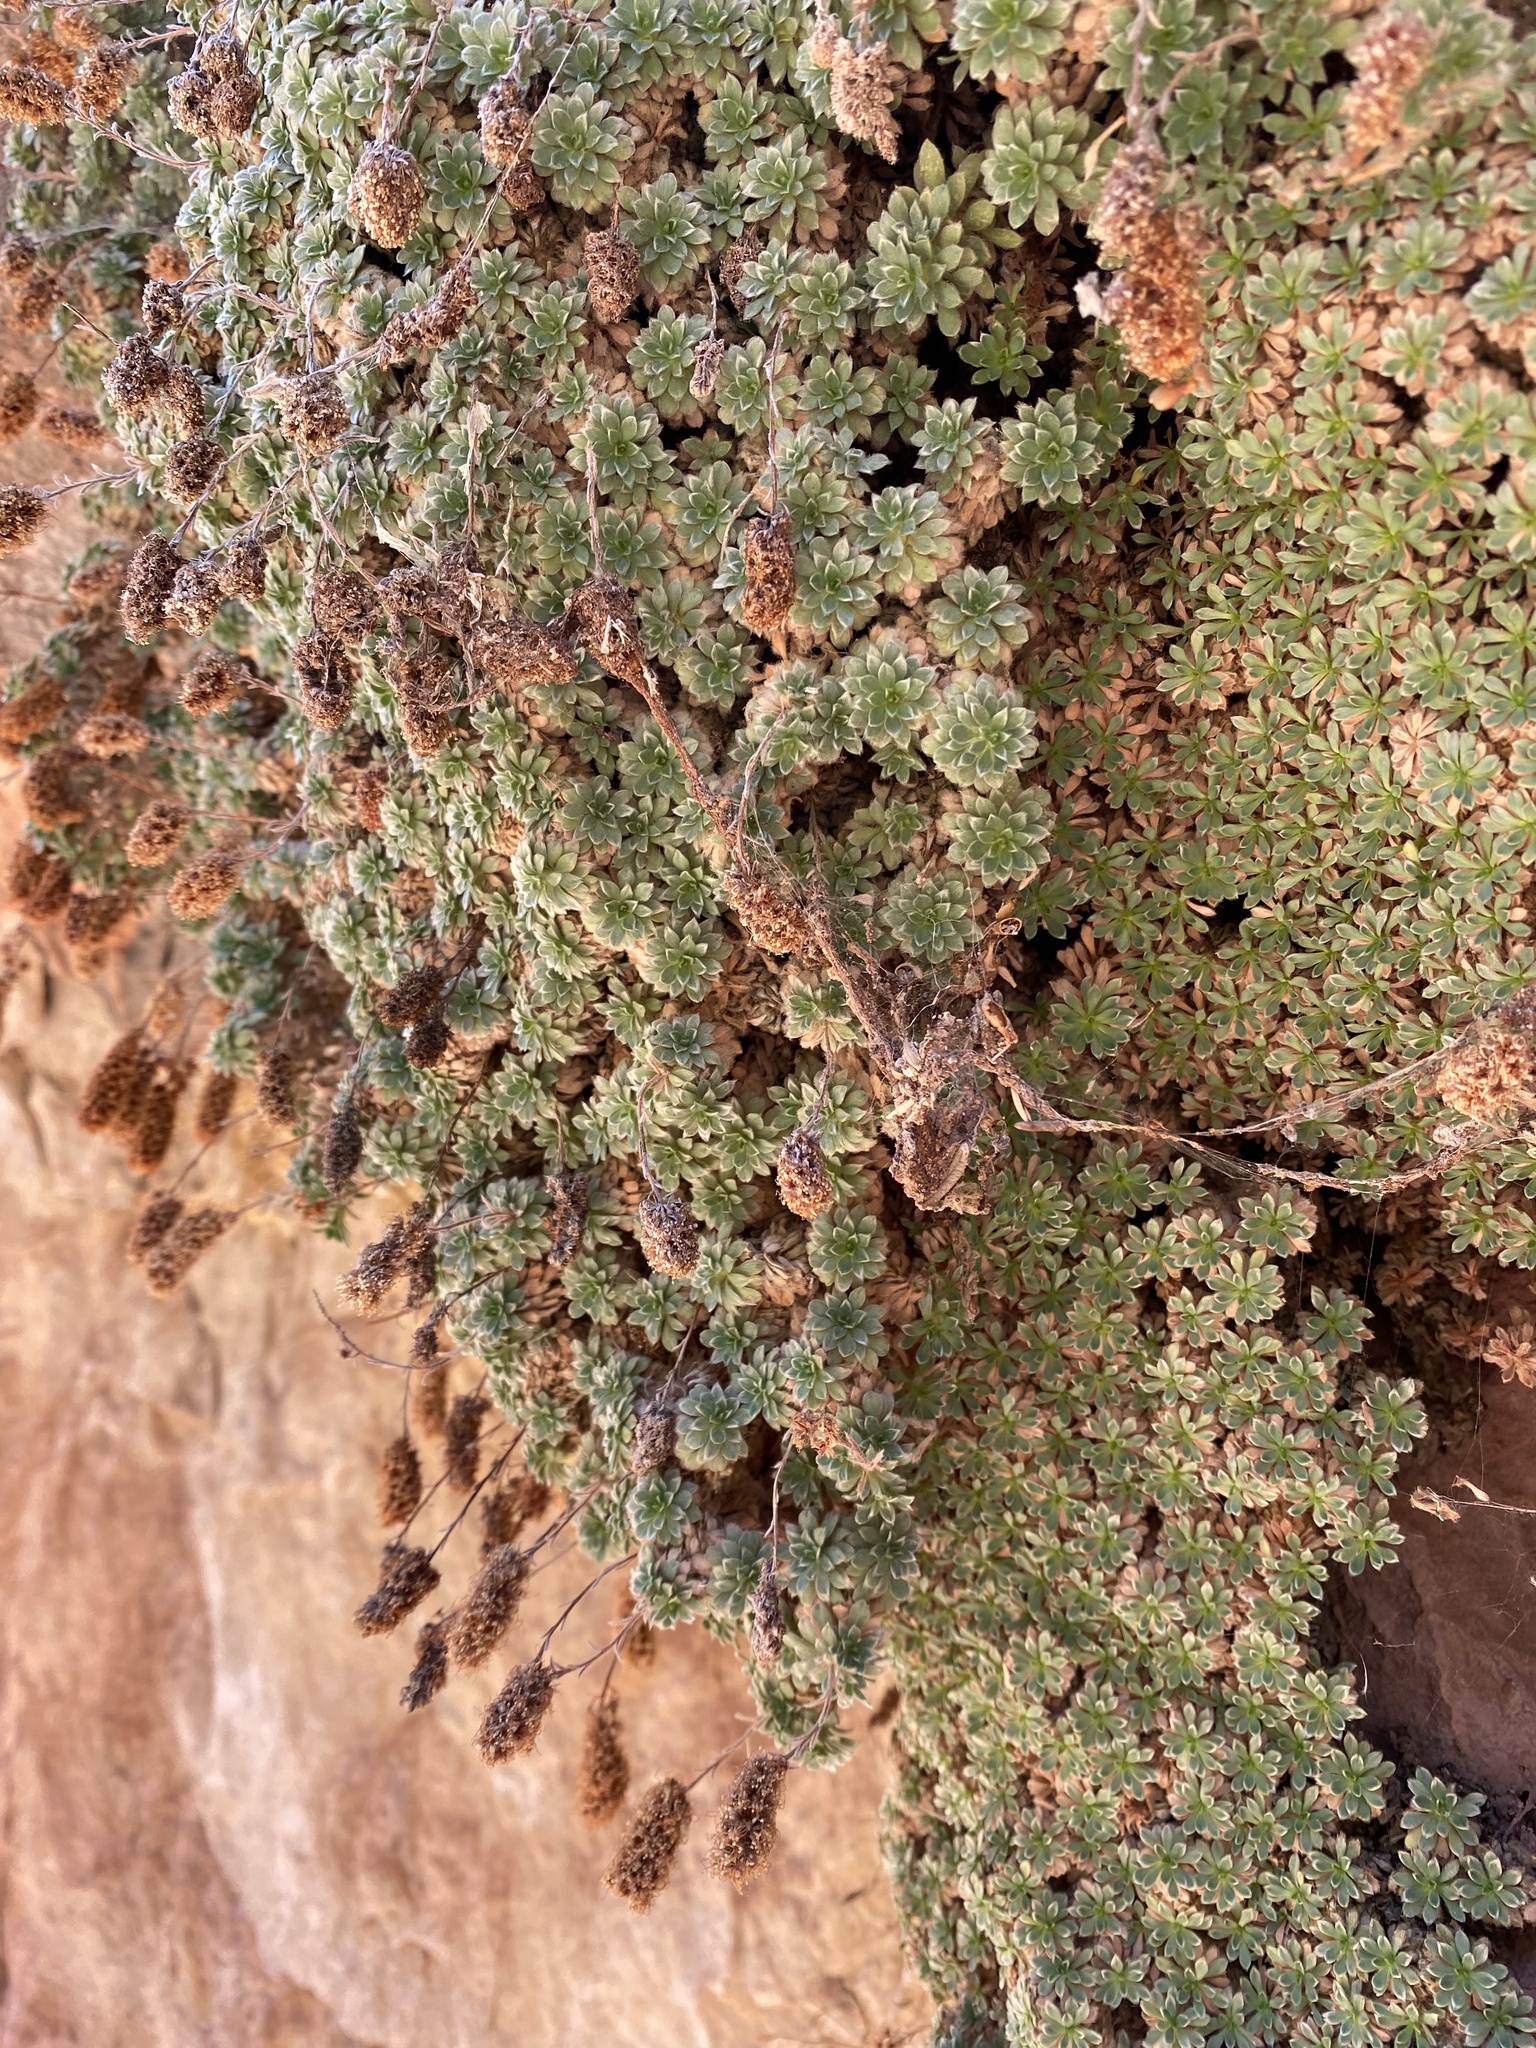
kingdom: Plantae
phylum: Tracheophyta
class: Magnoliopsida
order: Rosales
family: Rosaceae
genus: Petrophytum
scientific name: Petrophytum caespitosum
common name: Mat rockspirea
